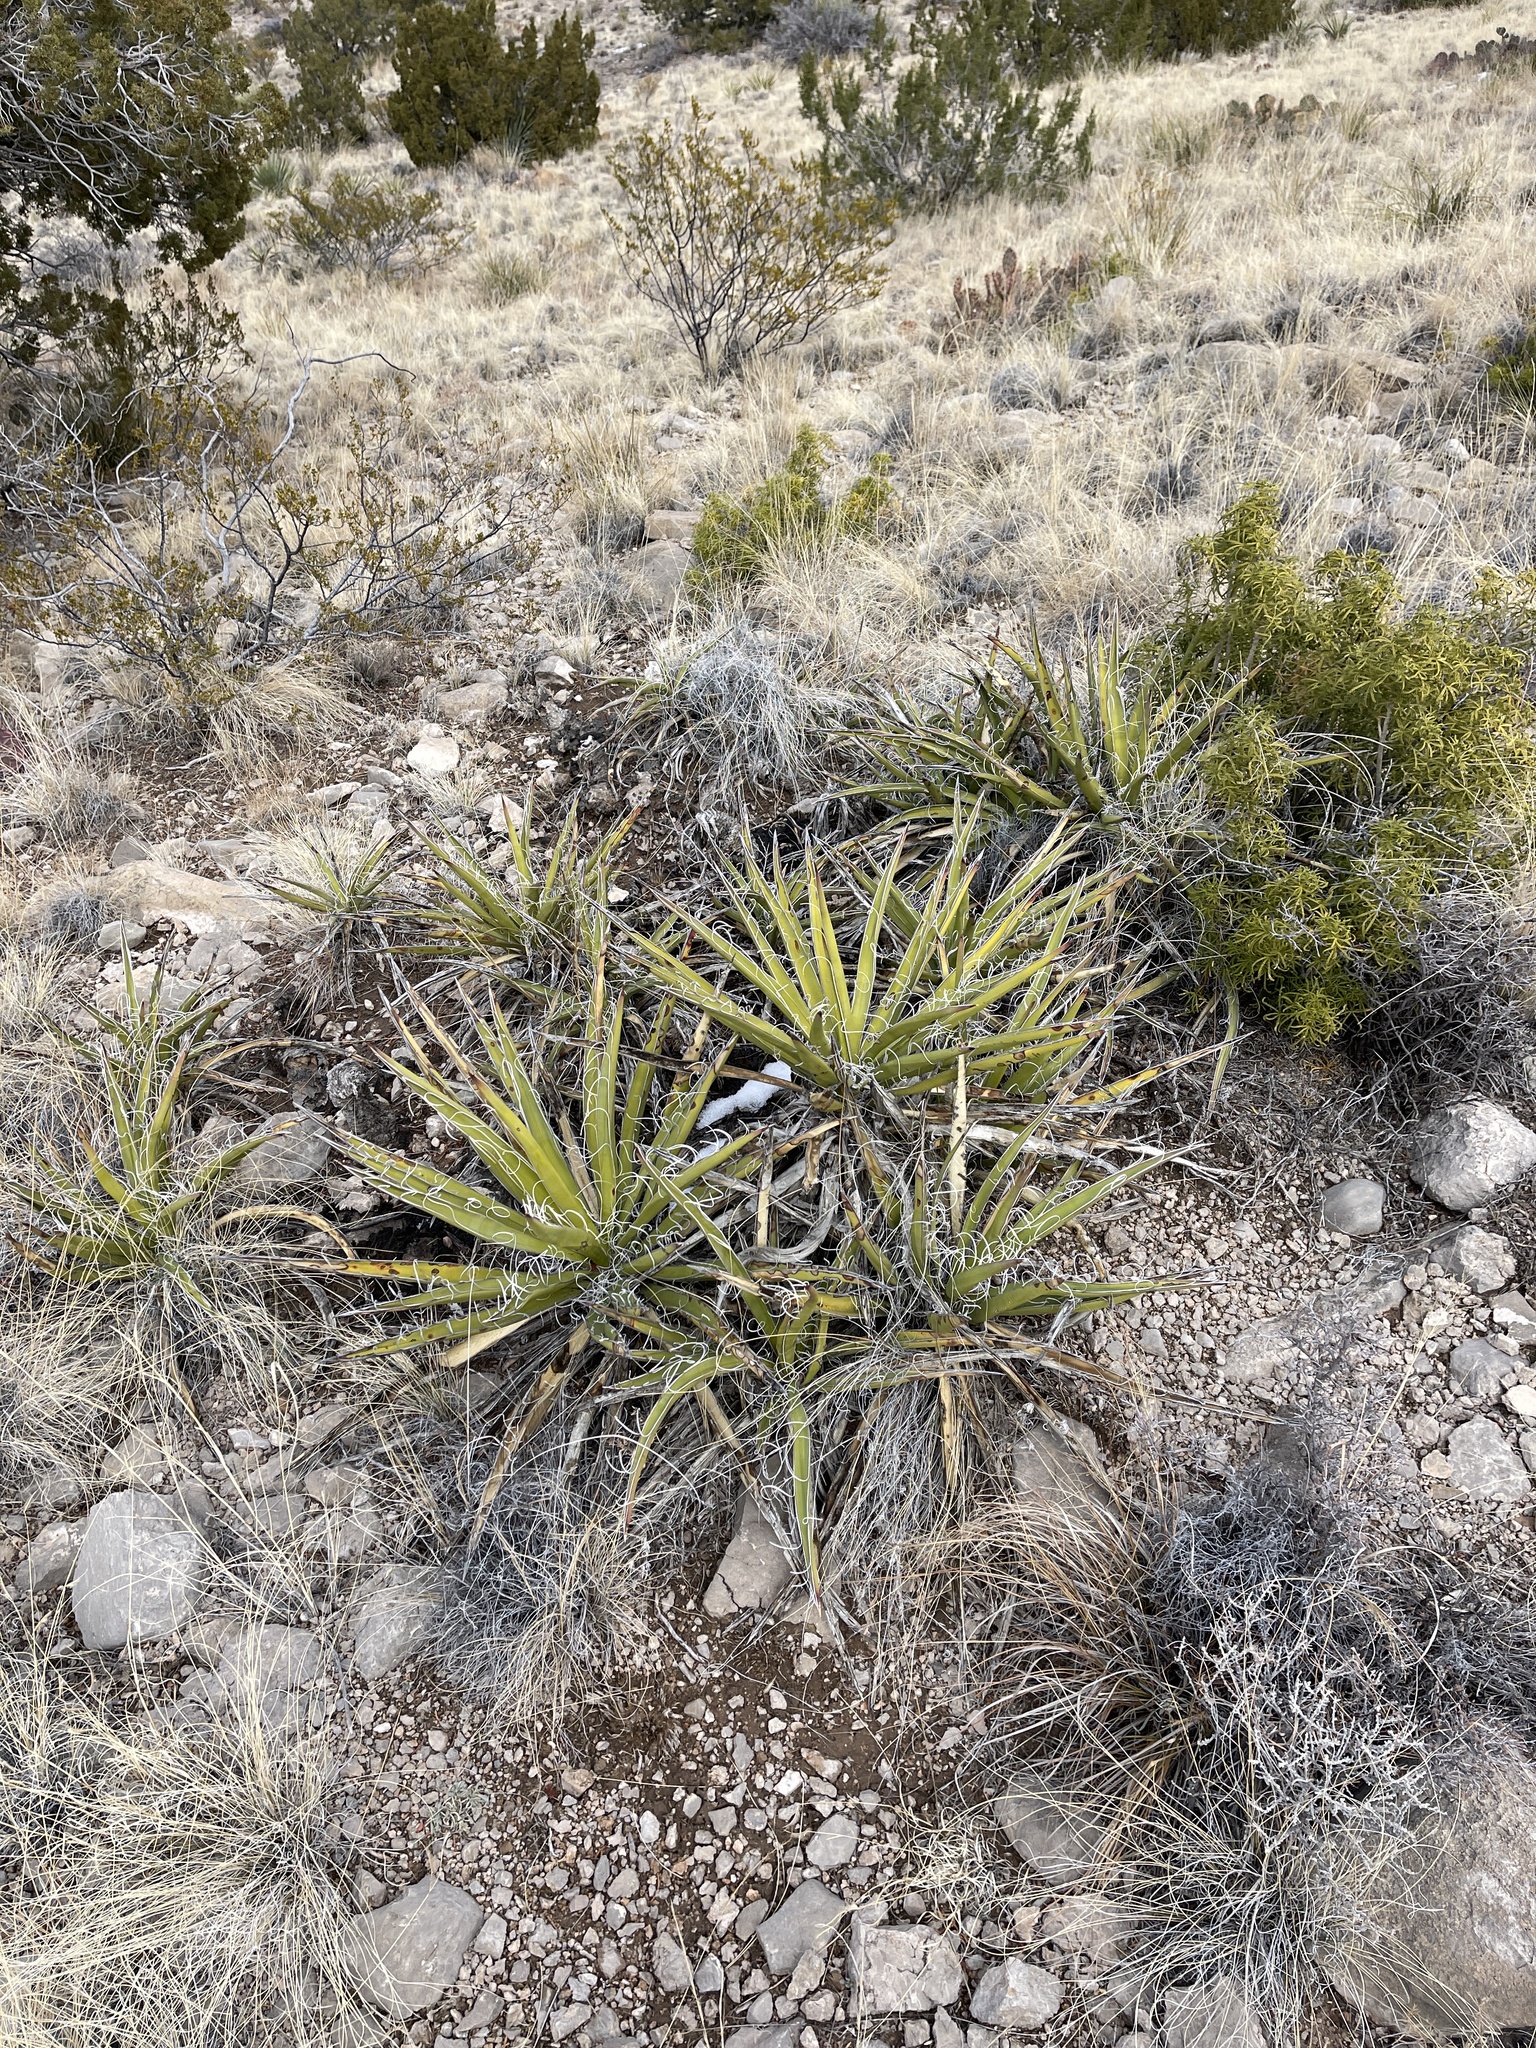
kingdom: Plantae
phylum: Tracheophyta
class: Liliopsida
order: Asparagales
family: Asparagaceae
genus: Yucca
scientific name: Yucca baccata
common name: Banana yucca
